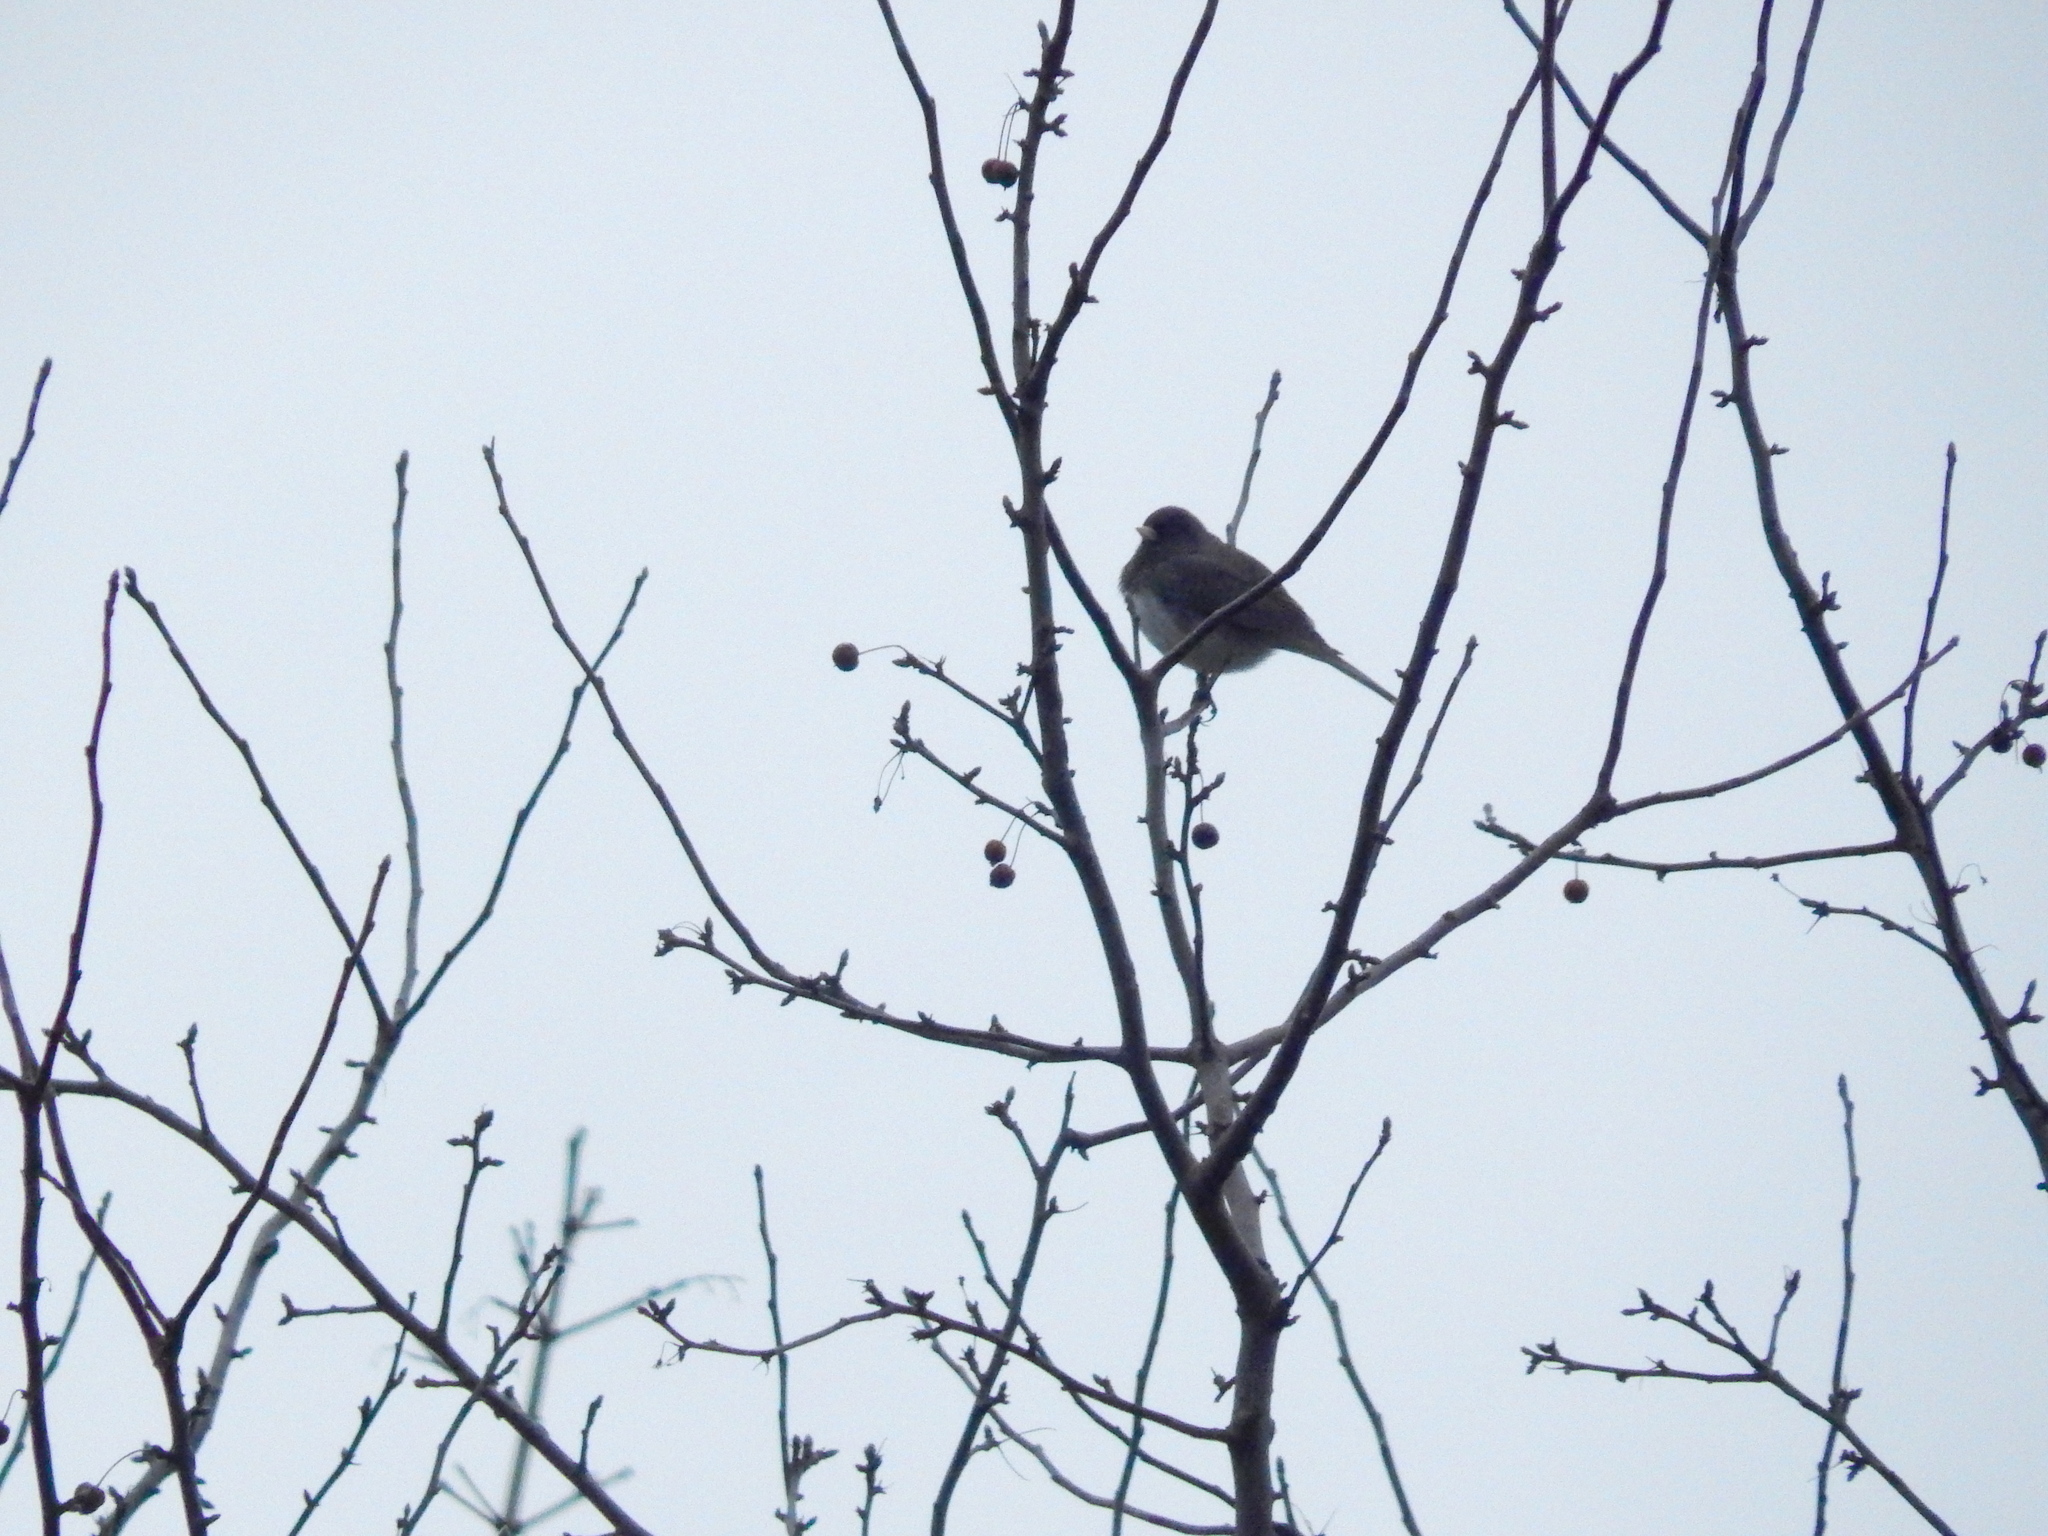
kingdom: Animalia
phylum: Chordata
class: Aves
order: Passeriformes
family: Passerellidae
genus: Junco
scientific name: Junco hyemalis
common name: Dark-eyed junco
